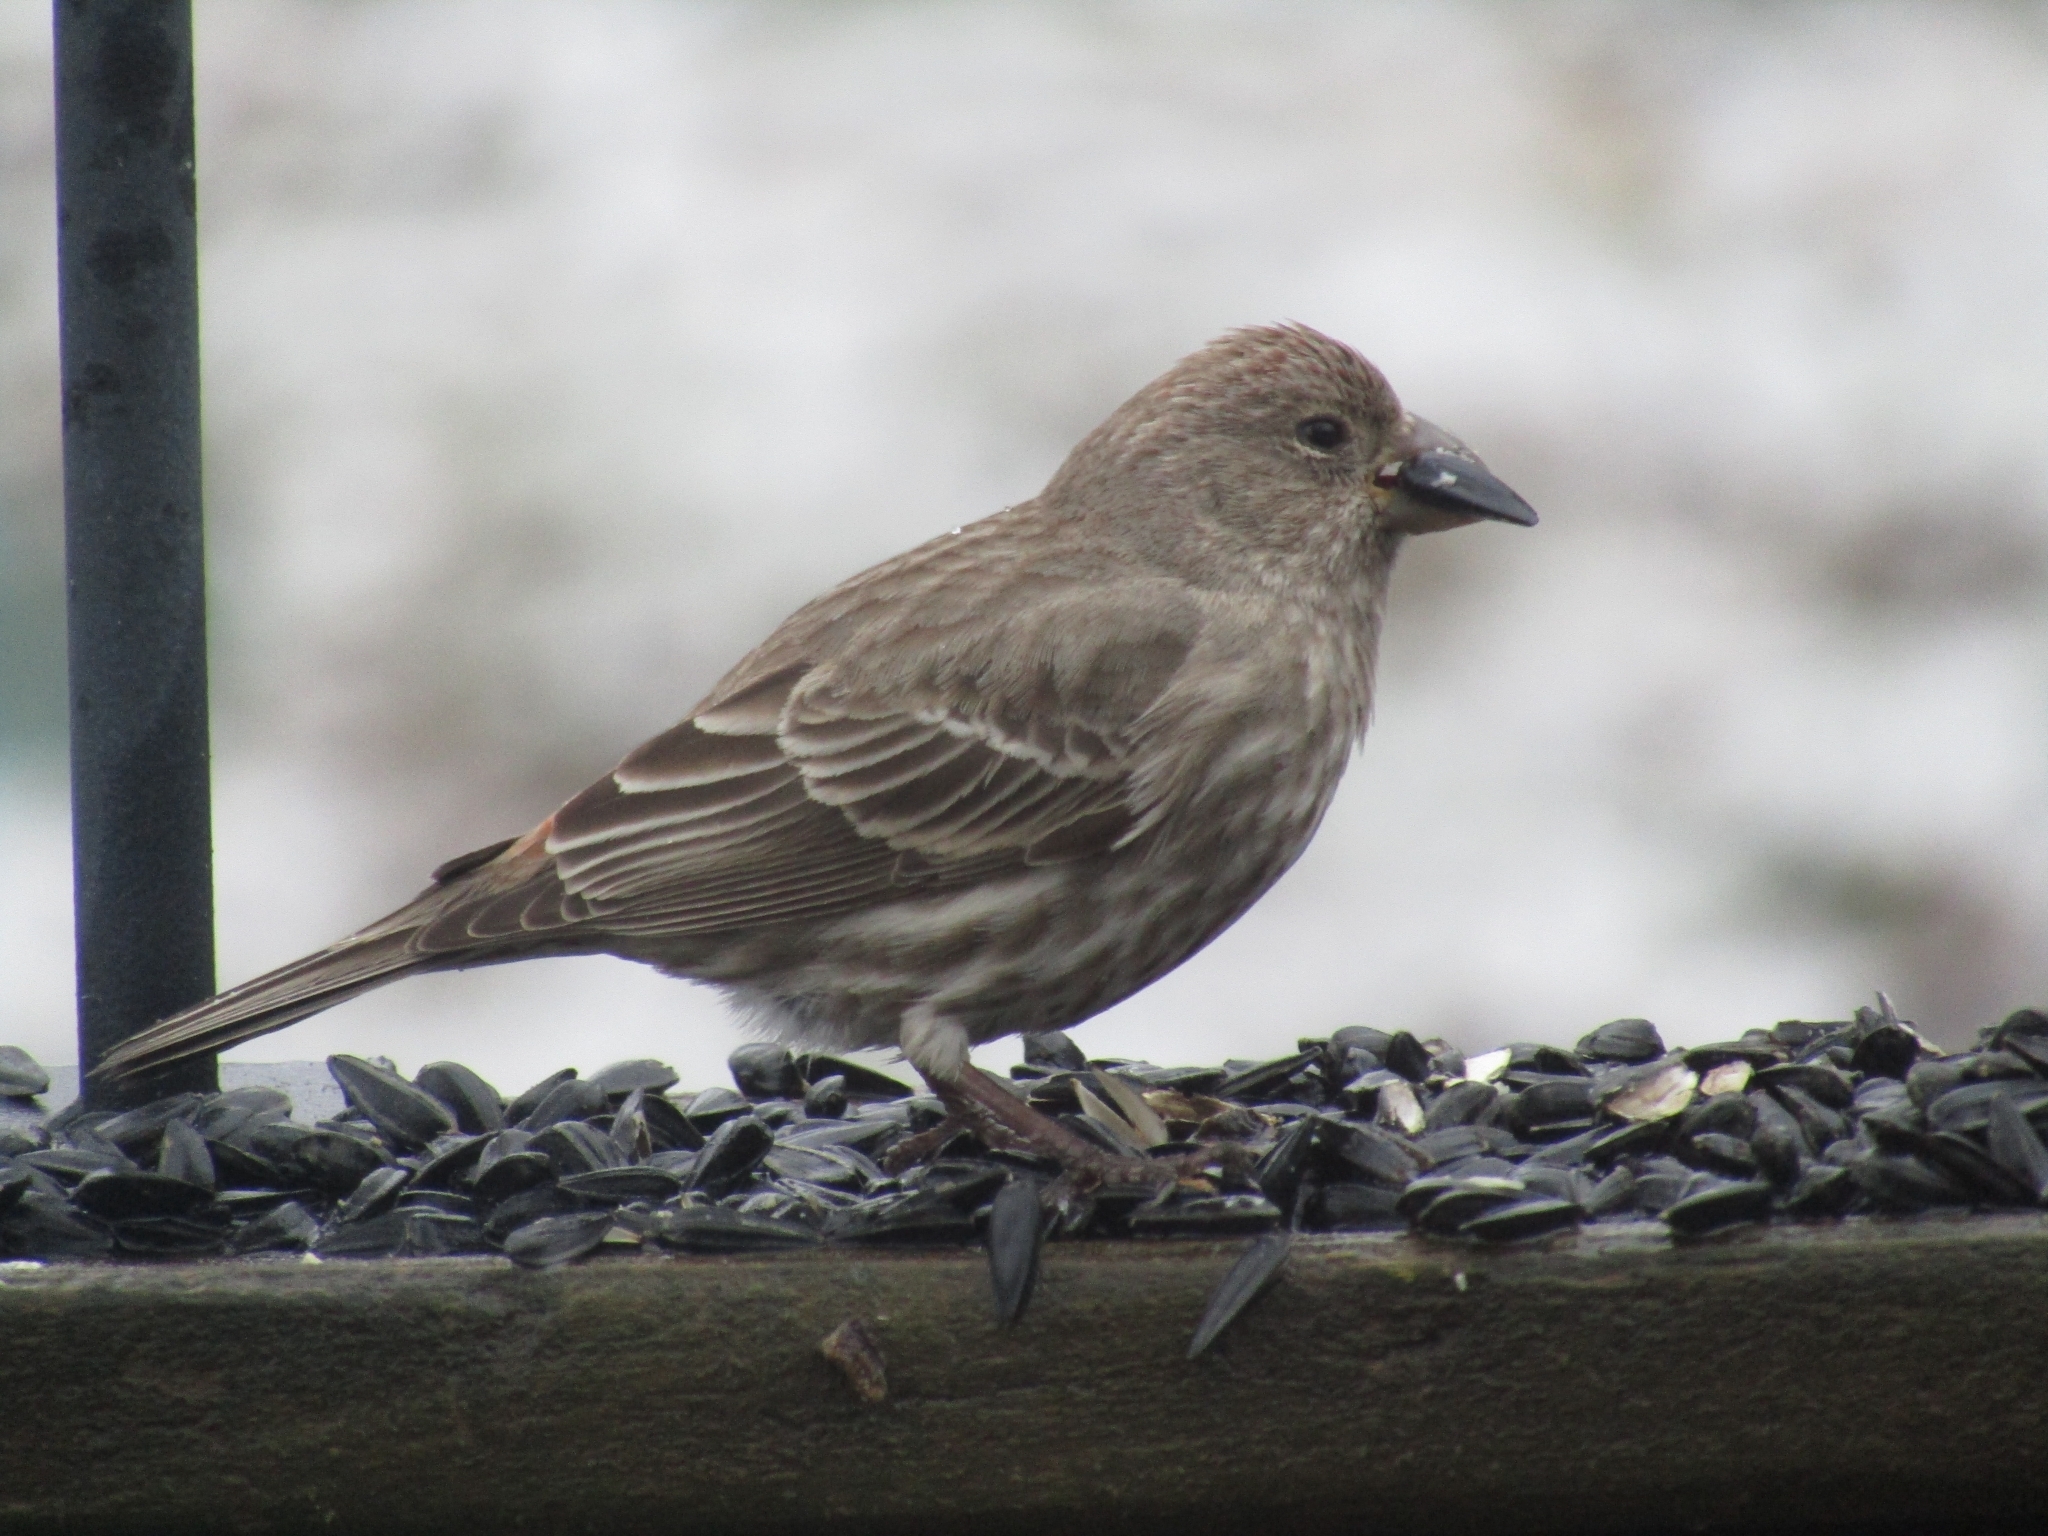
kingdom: Animalia
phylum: Chordata
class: Aves
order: Passeriformes
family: Fringillidae
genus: Haemorhous
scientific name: Haemorhous mexicanus
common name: House finch
